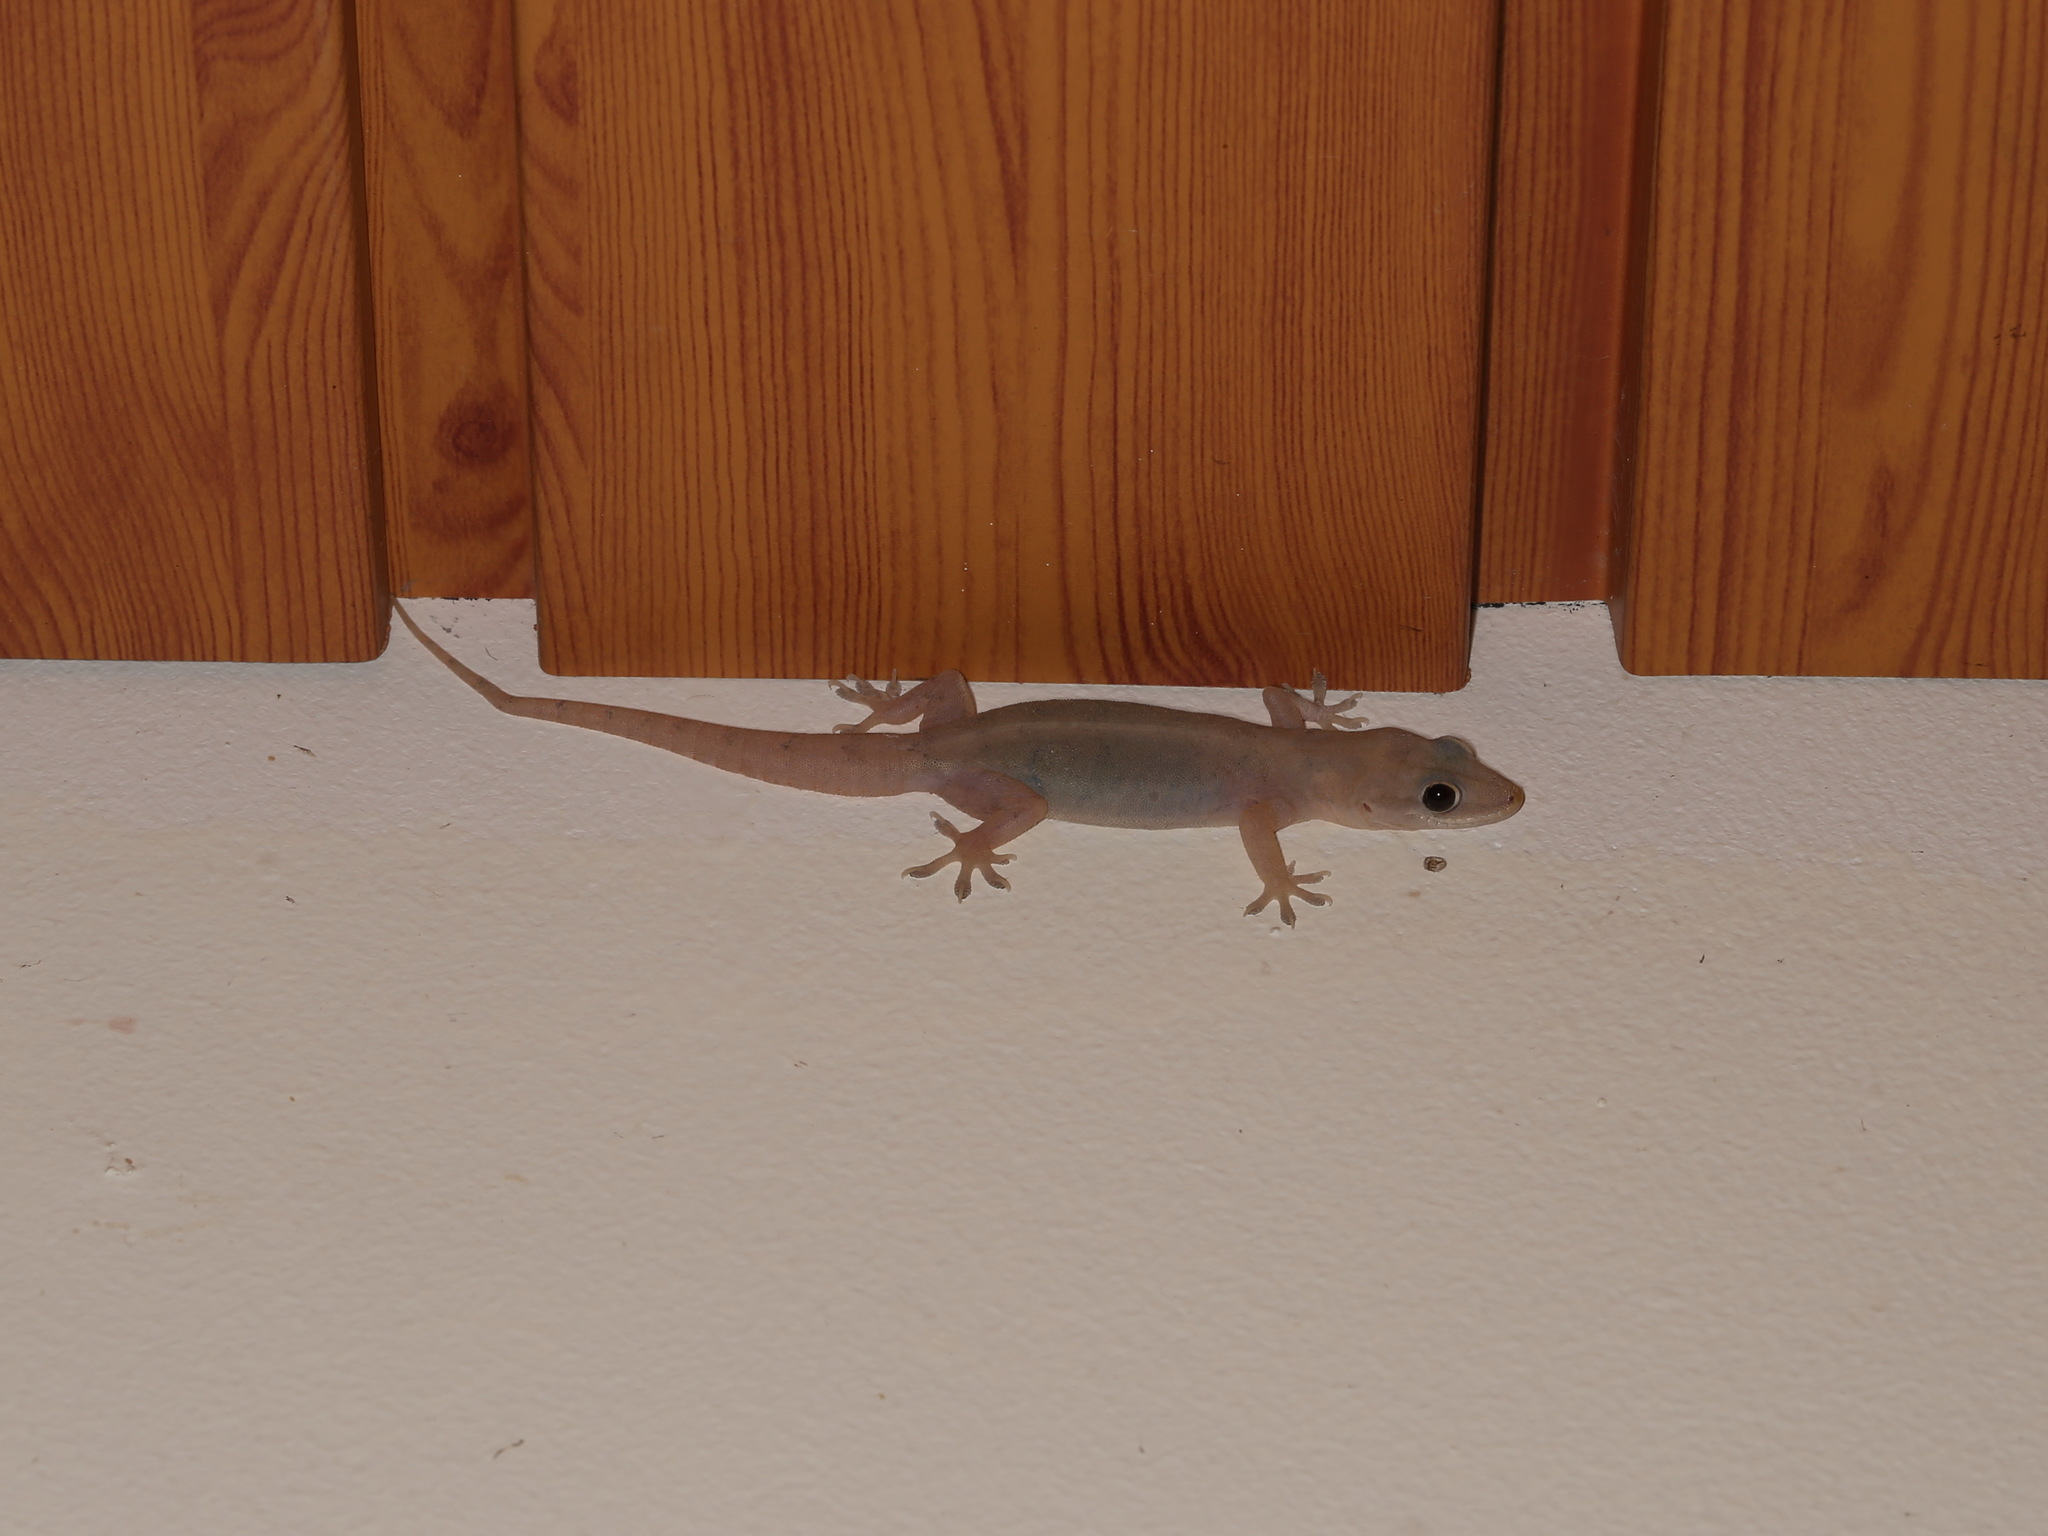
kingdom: Animalia
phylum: Chordata
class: Squamata
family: Gekkonidae
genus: Hemidactylus
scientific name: Hemidactylus bowringii
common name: Oriental leaf-toed gecko
